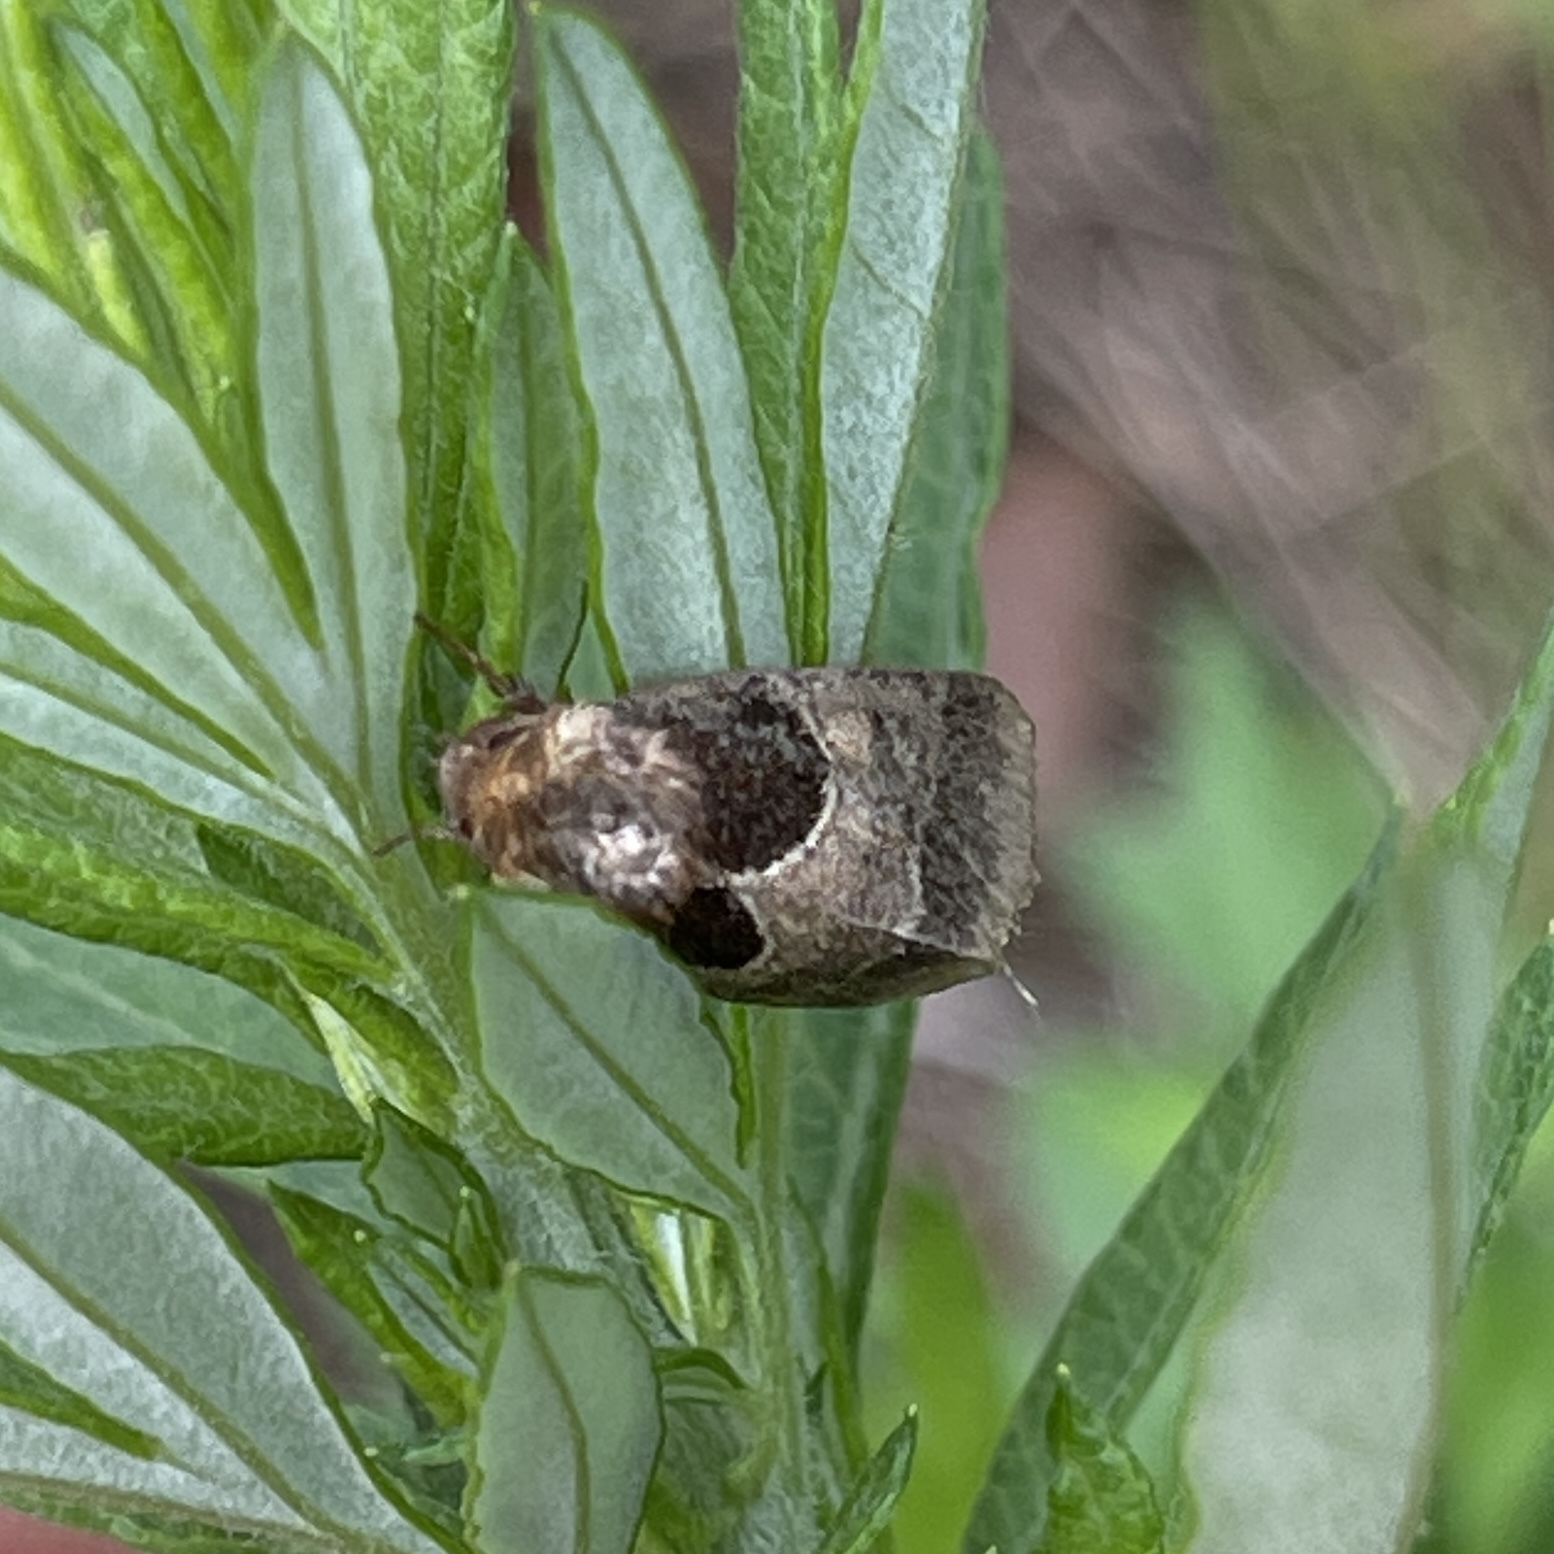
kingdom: Animalia
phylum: Arthropoda
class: Insecta
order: Lepidoptera
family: Noctuidae
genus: Schinia
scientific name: Schinia arcigera
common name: Arcigera flower moth
